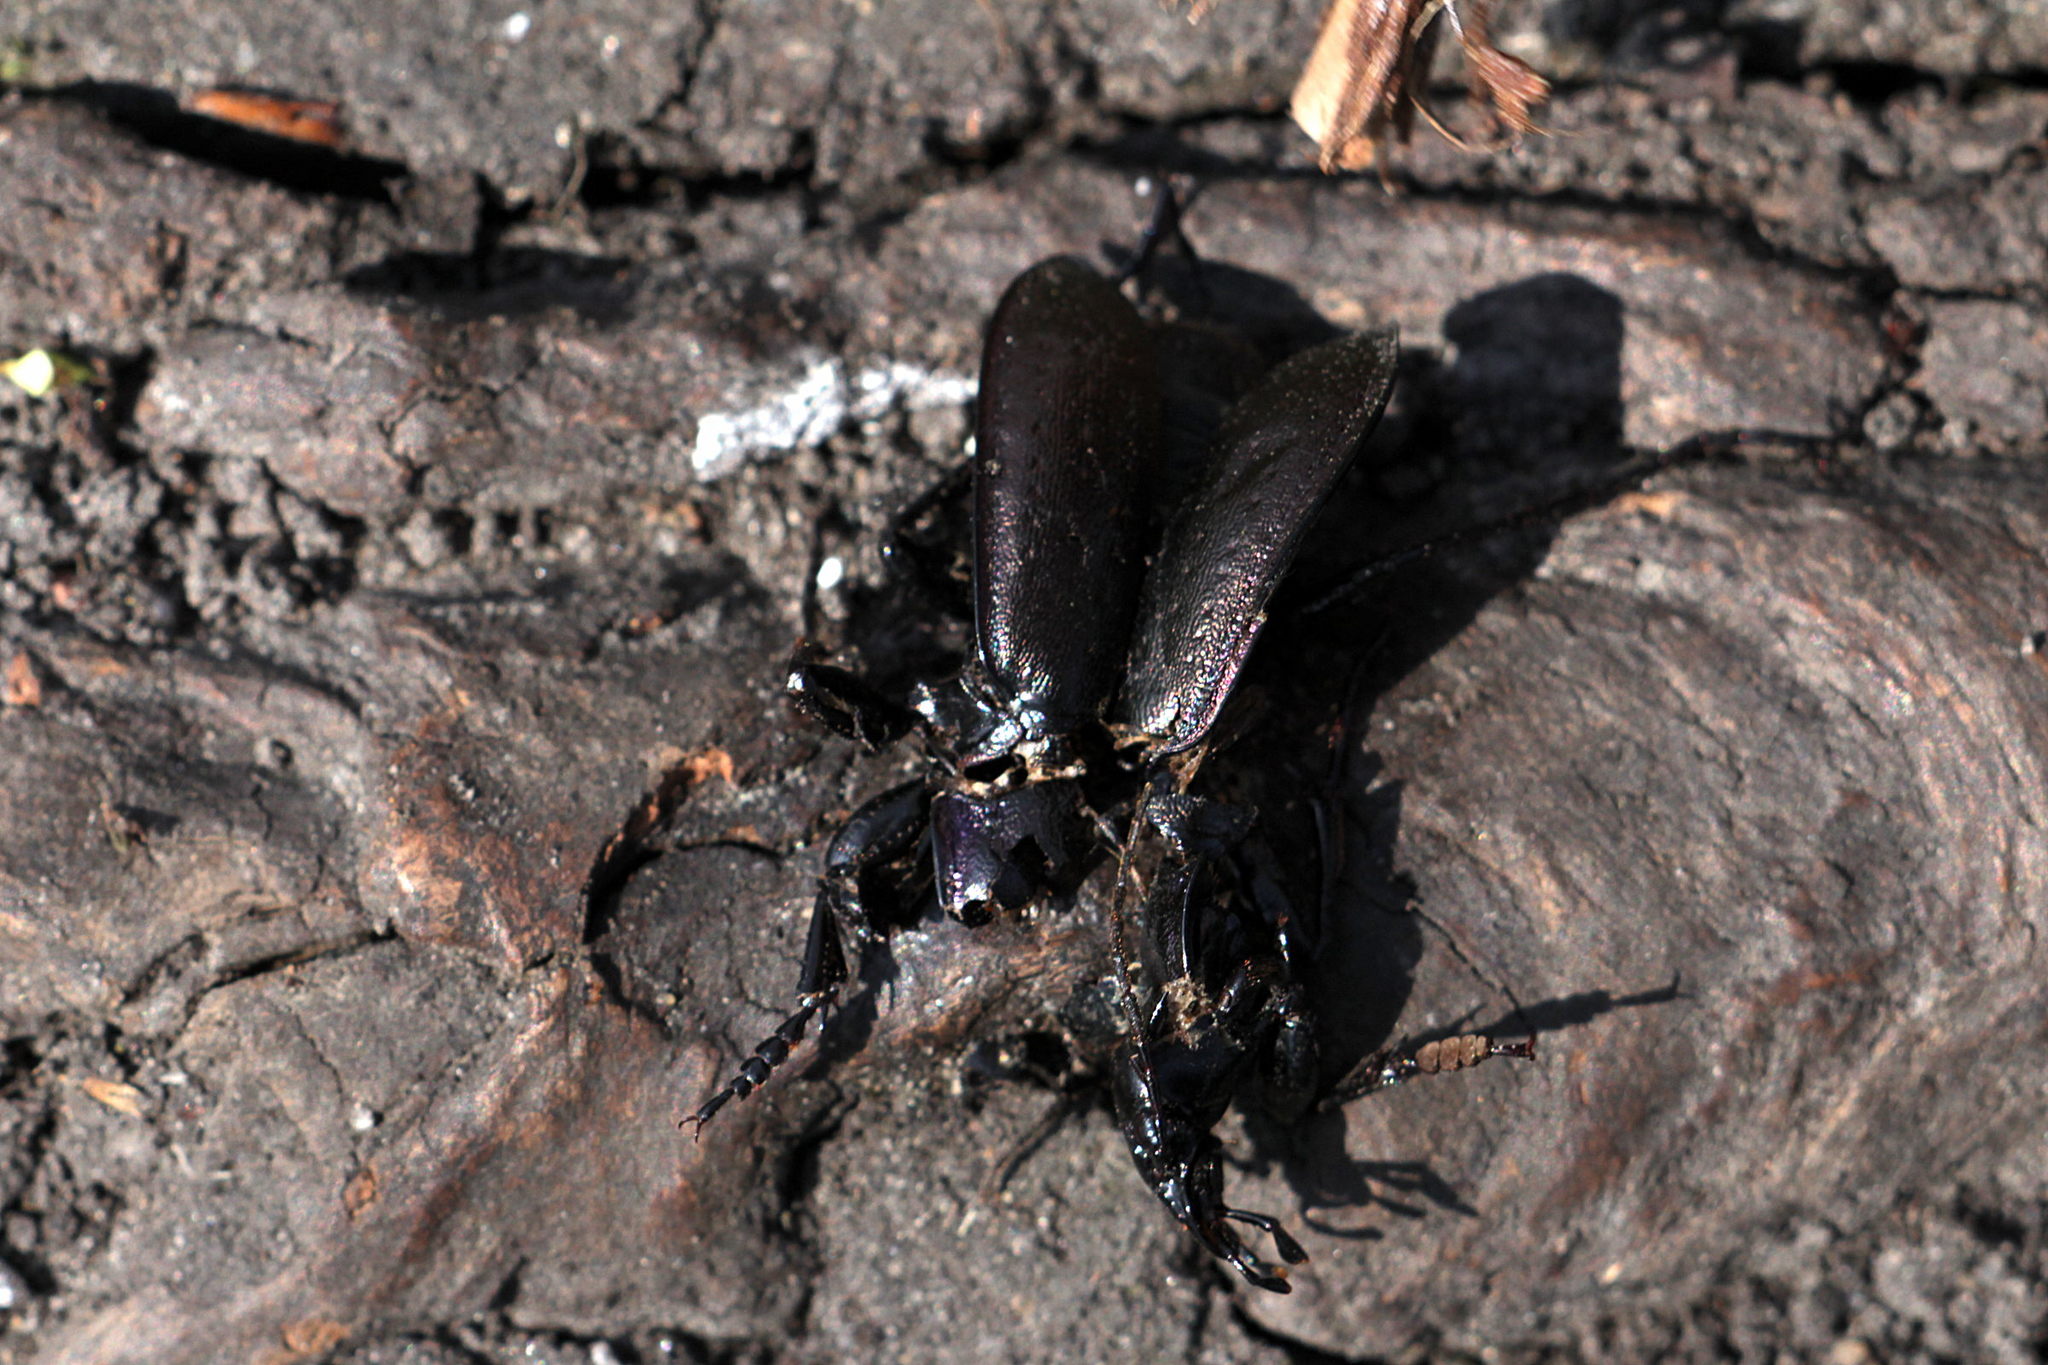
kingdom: Animalia
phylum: Arthropoda
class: Insecta
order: Coleoptera
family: Carabidae
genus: Carabus
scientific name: Carabus nemoralis
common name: European ground beetle
